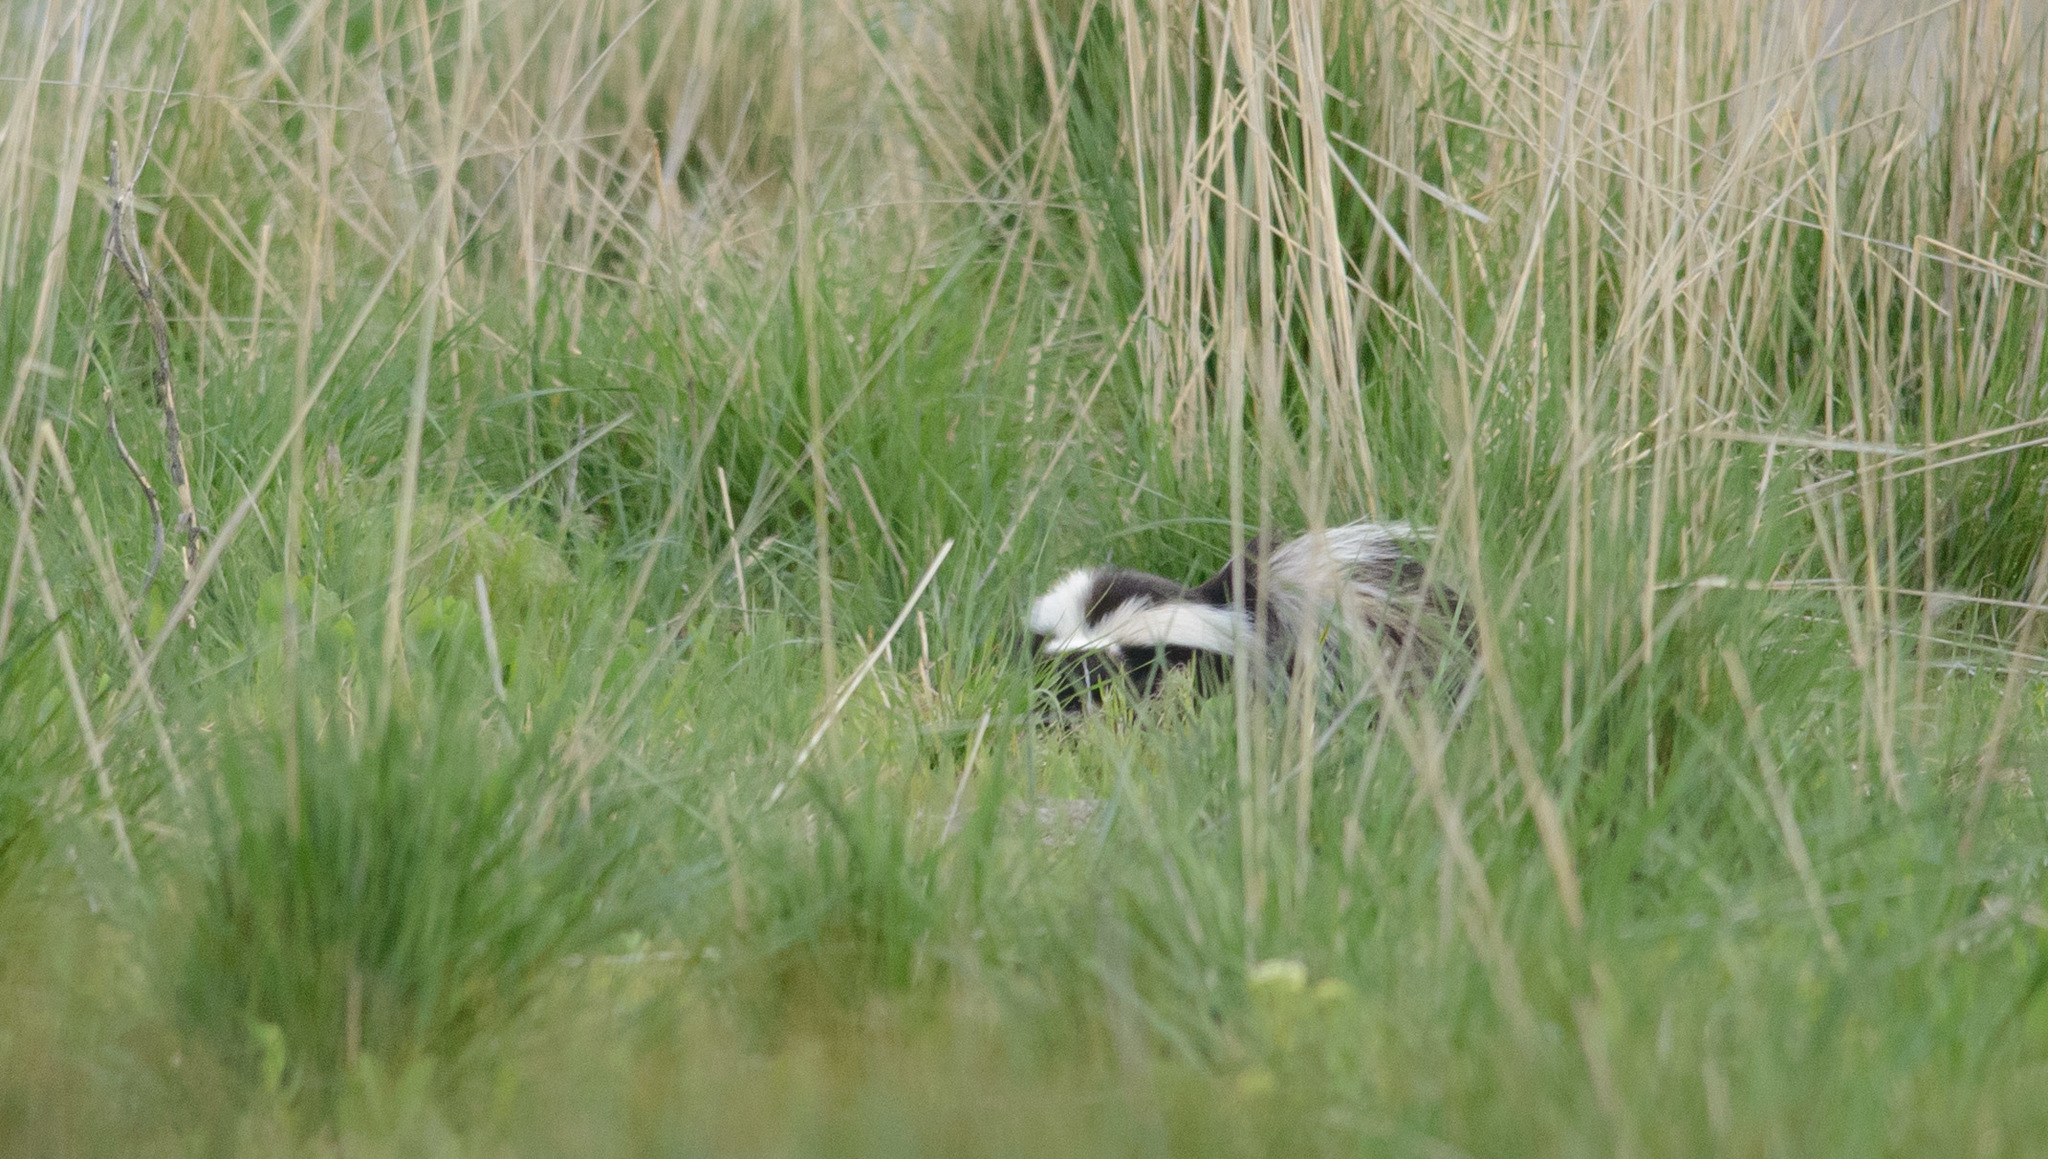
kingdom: Animalia
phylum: Chordata
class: Mammalia
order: Carnivora
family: Mephitidae
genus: Mephitis
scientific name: Mephitis mephitis
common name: Striped skunk
